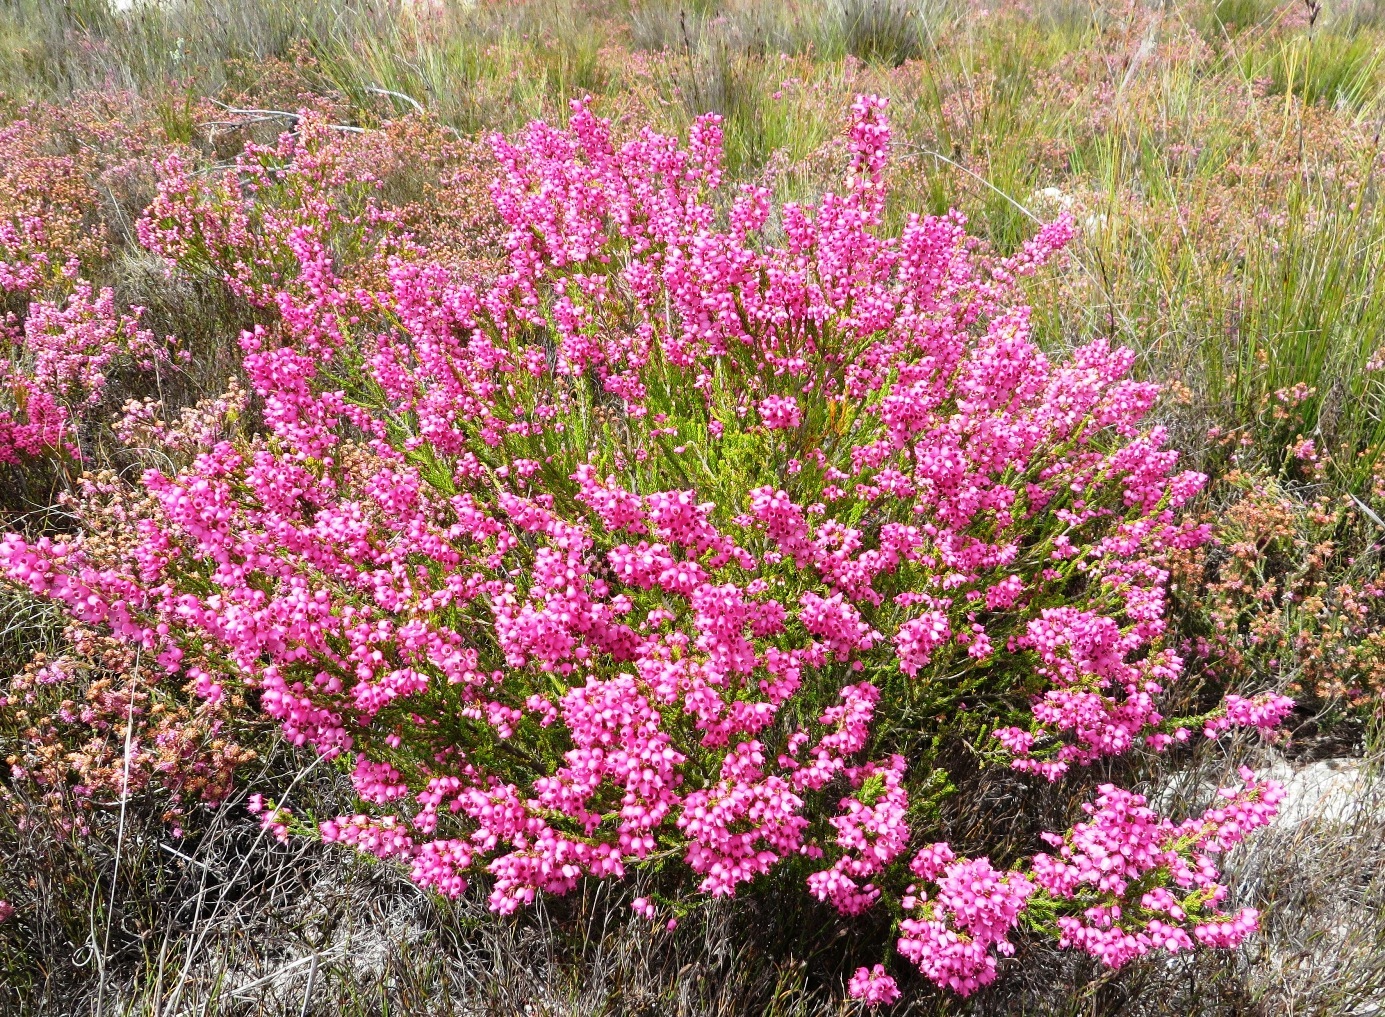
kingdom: Plantae
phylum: Tracheophyta
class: Magnoliopsida
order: Ericales
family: Ericaceae
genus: Erica
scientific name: Erica lateralis
